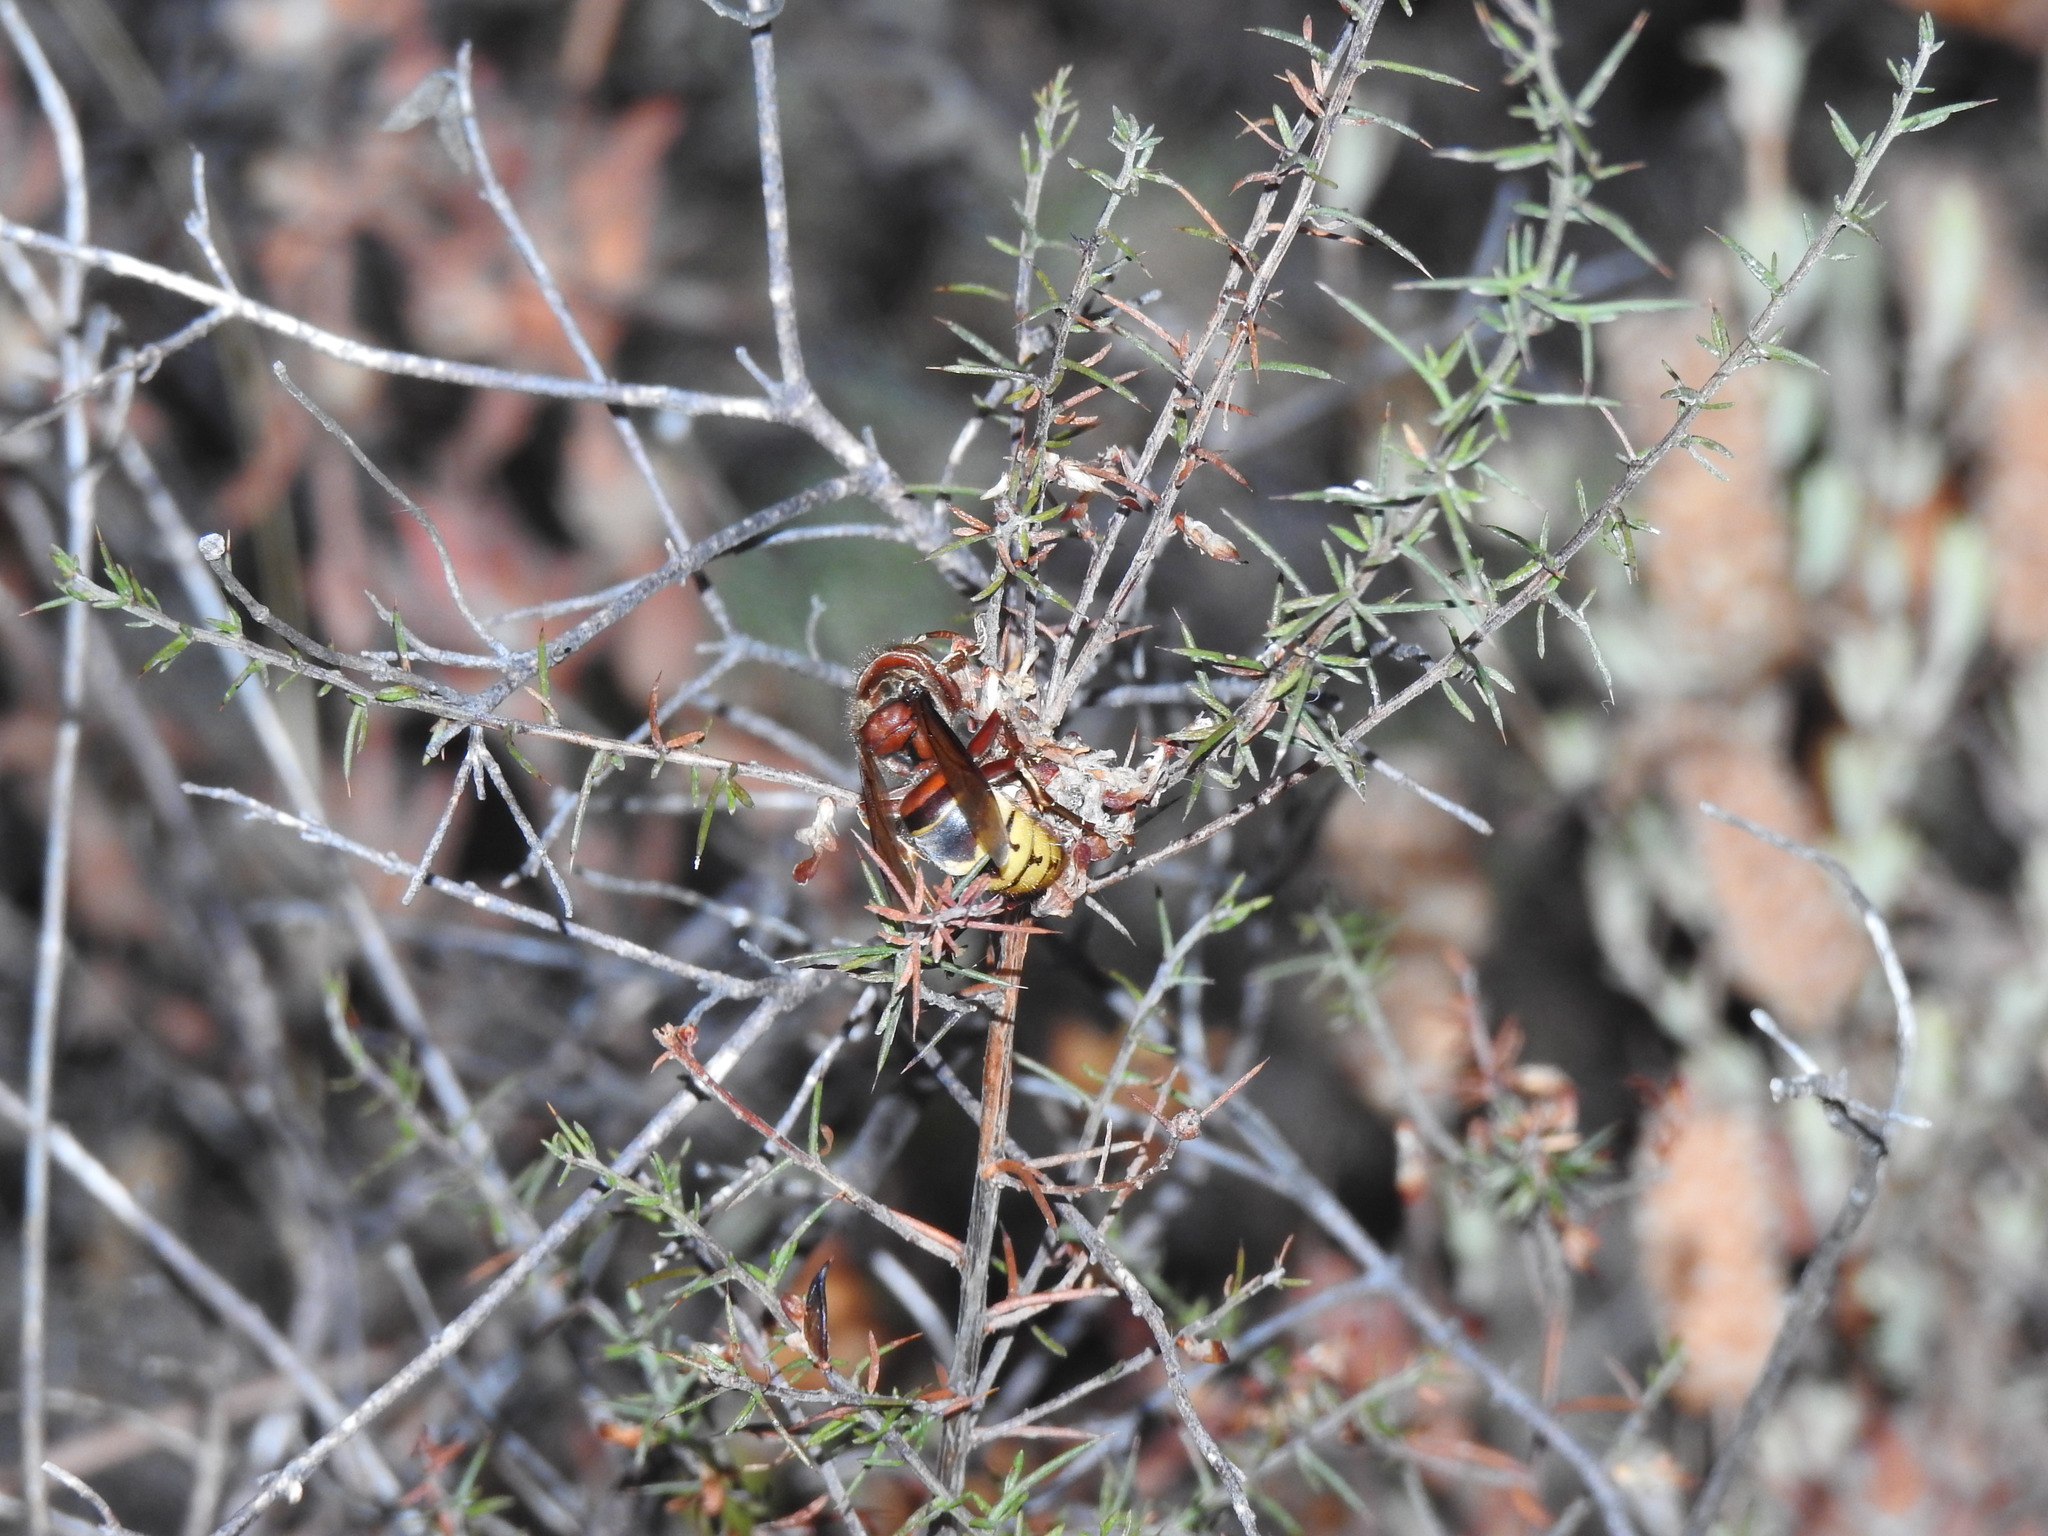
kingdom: Animalia
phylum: Arthropoda
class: Insecta
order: Hymenoptera
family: Vespidae
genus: Vespa
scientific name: Vespa crabro
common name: Hornet
